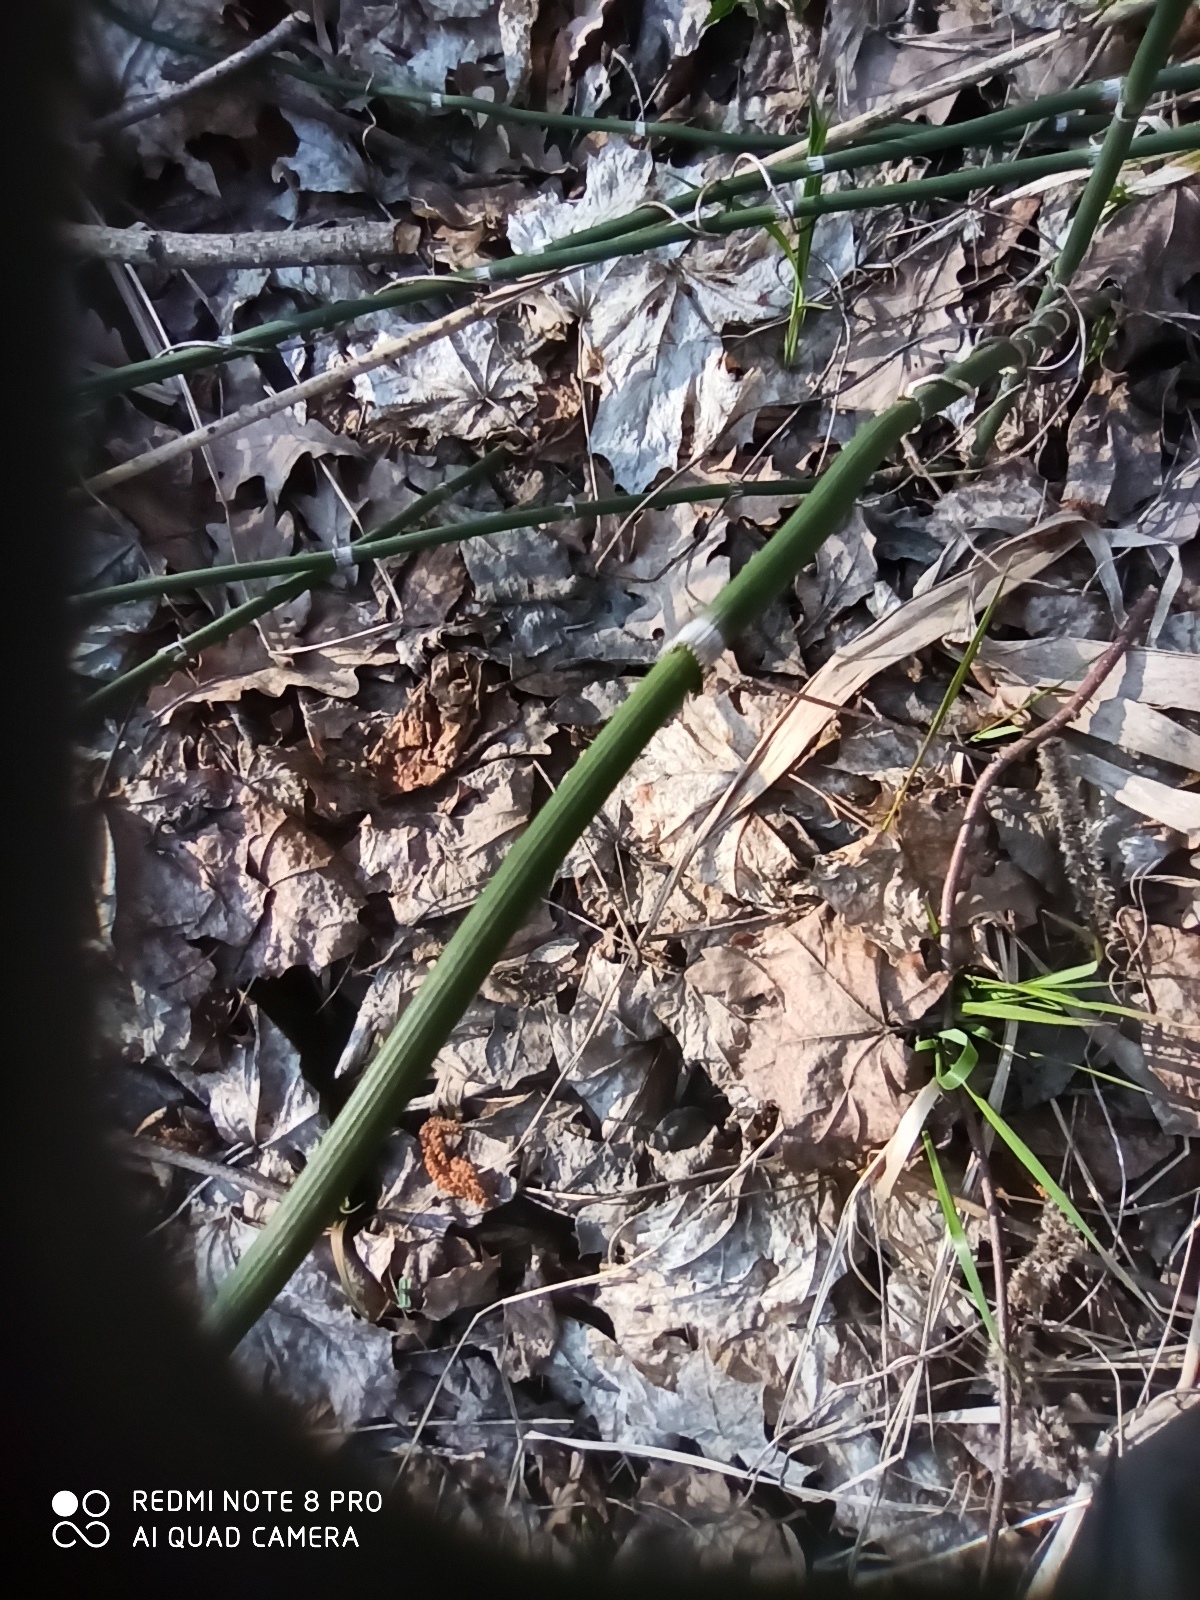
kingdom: Plantae
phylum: Tracheophyta
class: Polypodiopsida
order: Equisetales
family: Equisetaceae
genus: Equisetum
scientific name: Equisetum hyemale
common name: Rough horsetail
